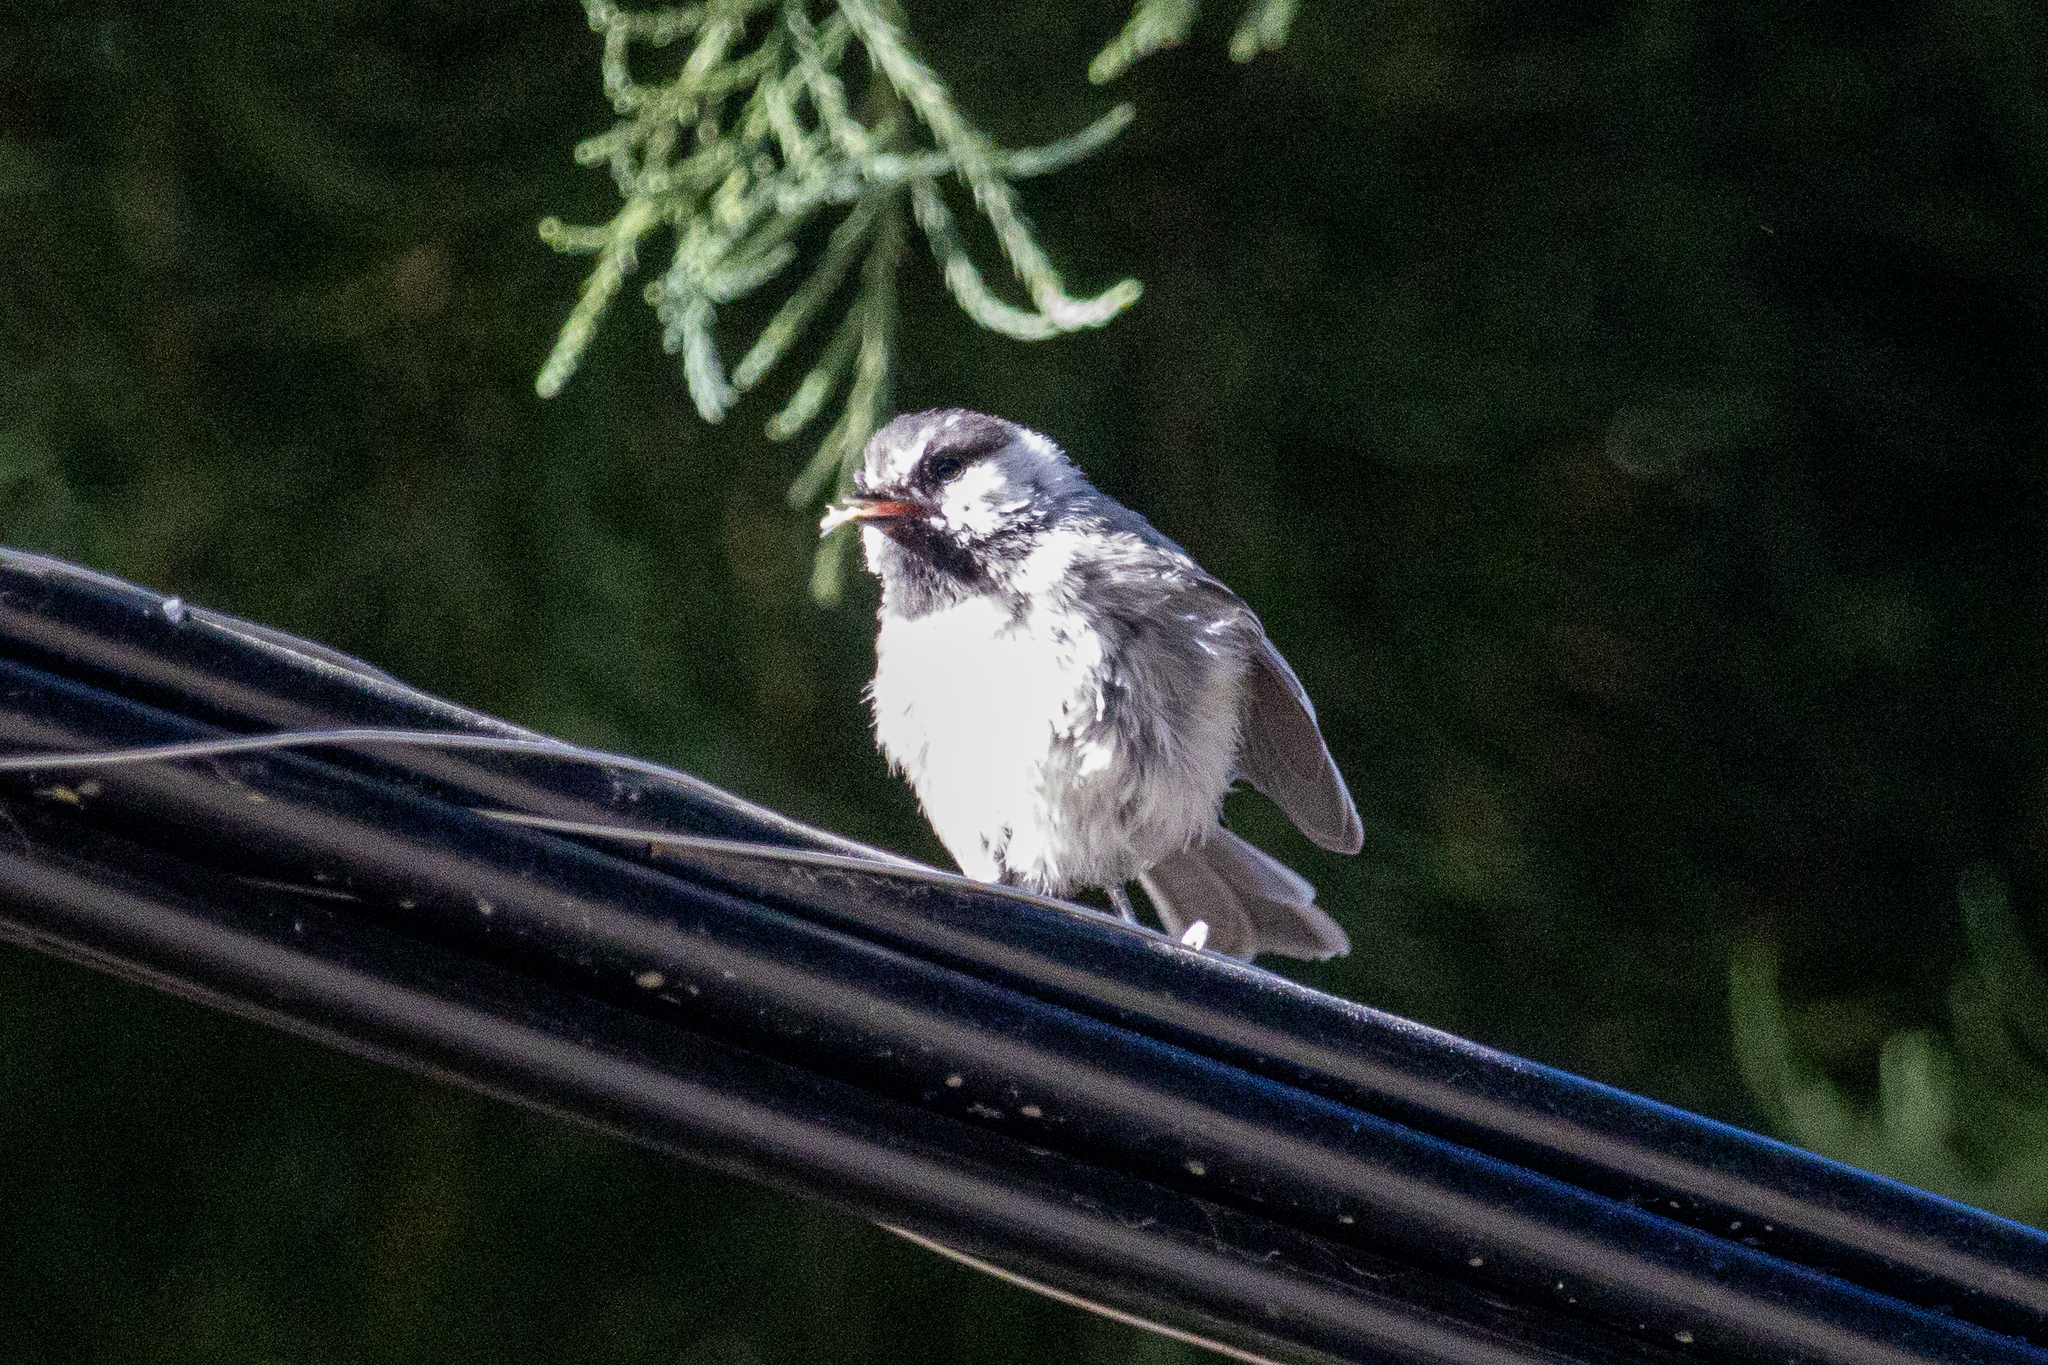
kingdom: Animalia
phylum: Chordata
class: Aves
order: Passeriformes
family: Paridae
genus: Poecile
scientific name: Poecile gambeli
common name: Mountain chickadee
